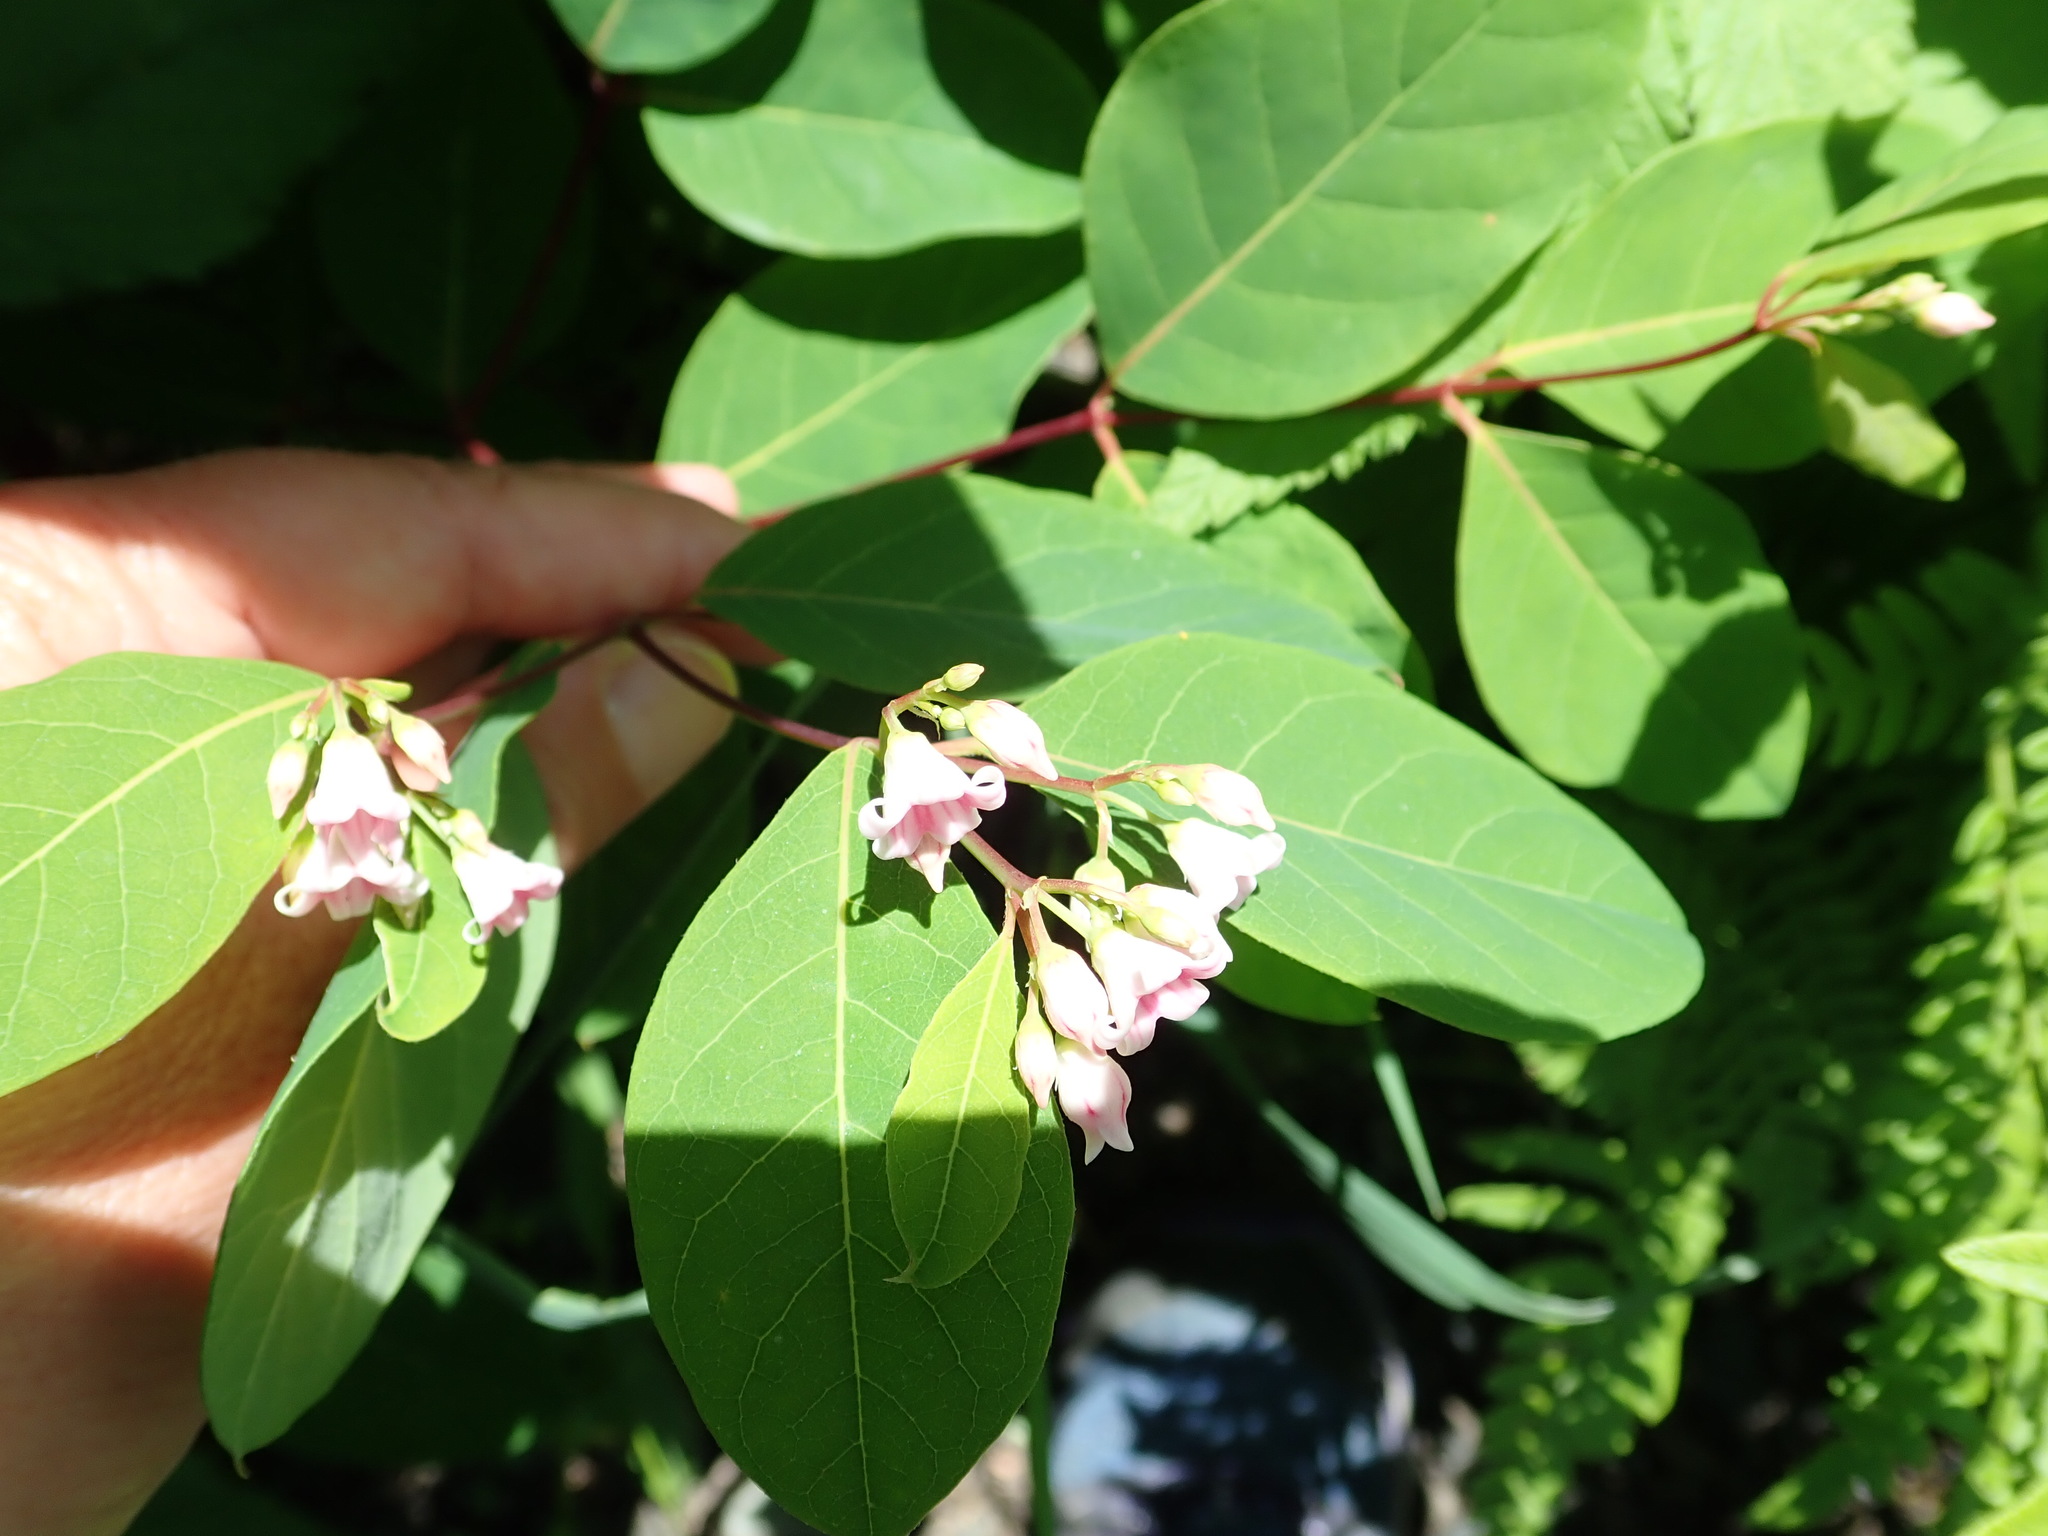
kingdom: Plantae
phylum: Tracheophyta
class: Magnoliopsida
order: Gentianales
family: Apocynaceae
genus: Apocynum
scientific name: Apocynum androsaemifolium
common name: Spreading dogbane
